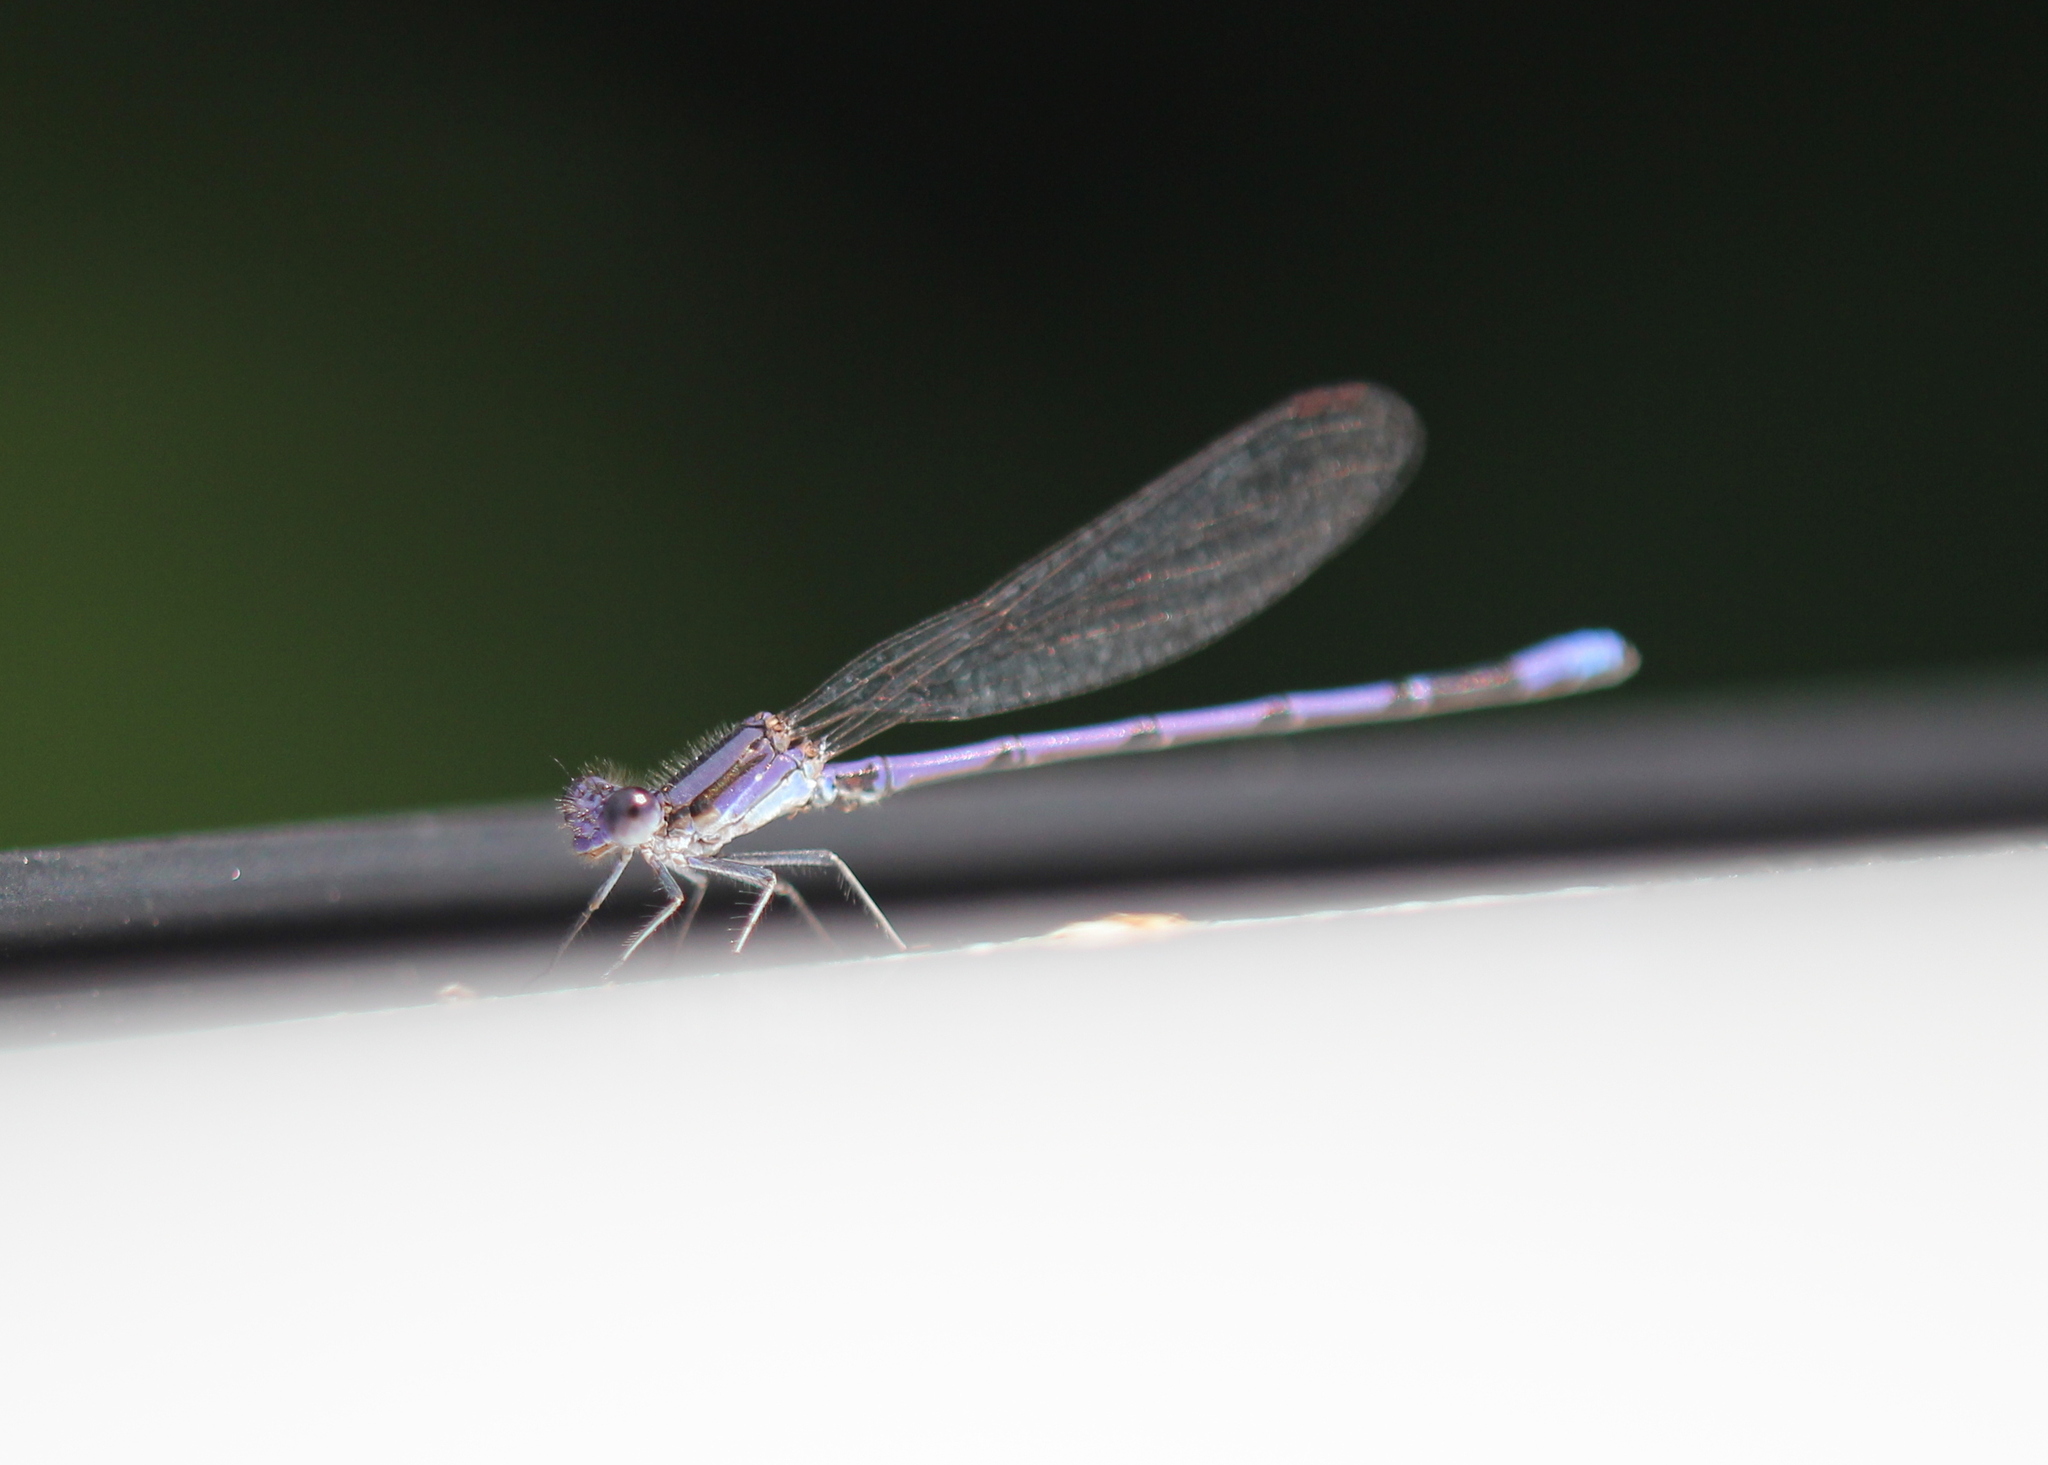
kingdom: Animalia
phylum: Arthropoda
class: Insecta
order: Odonata
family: Coenagrionidae
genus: Argia
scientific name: Argia fumipennis
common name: Variable dancer
